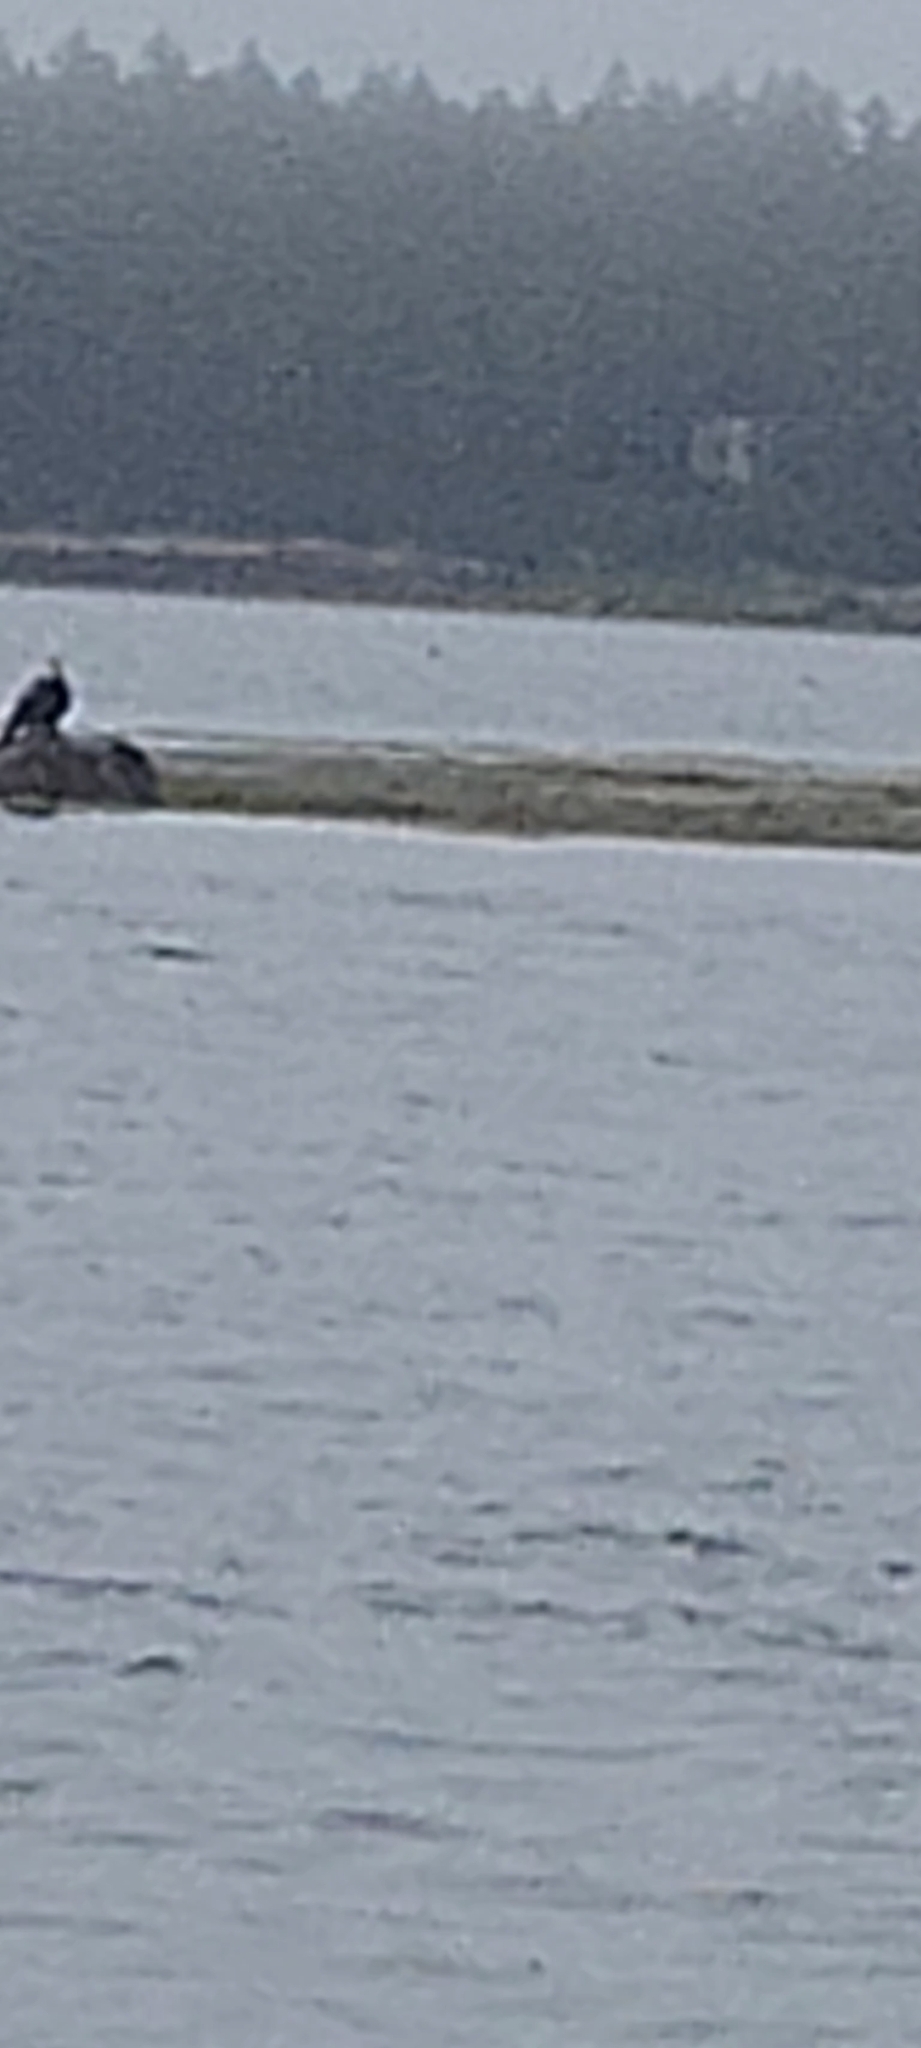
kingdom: Animalia
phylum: Chordata
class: Aves
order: Accipitriformes
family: Accipitridae
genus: Haliaeetus
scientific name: Haliaeetus leucocephalus
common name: Bald eagle
